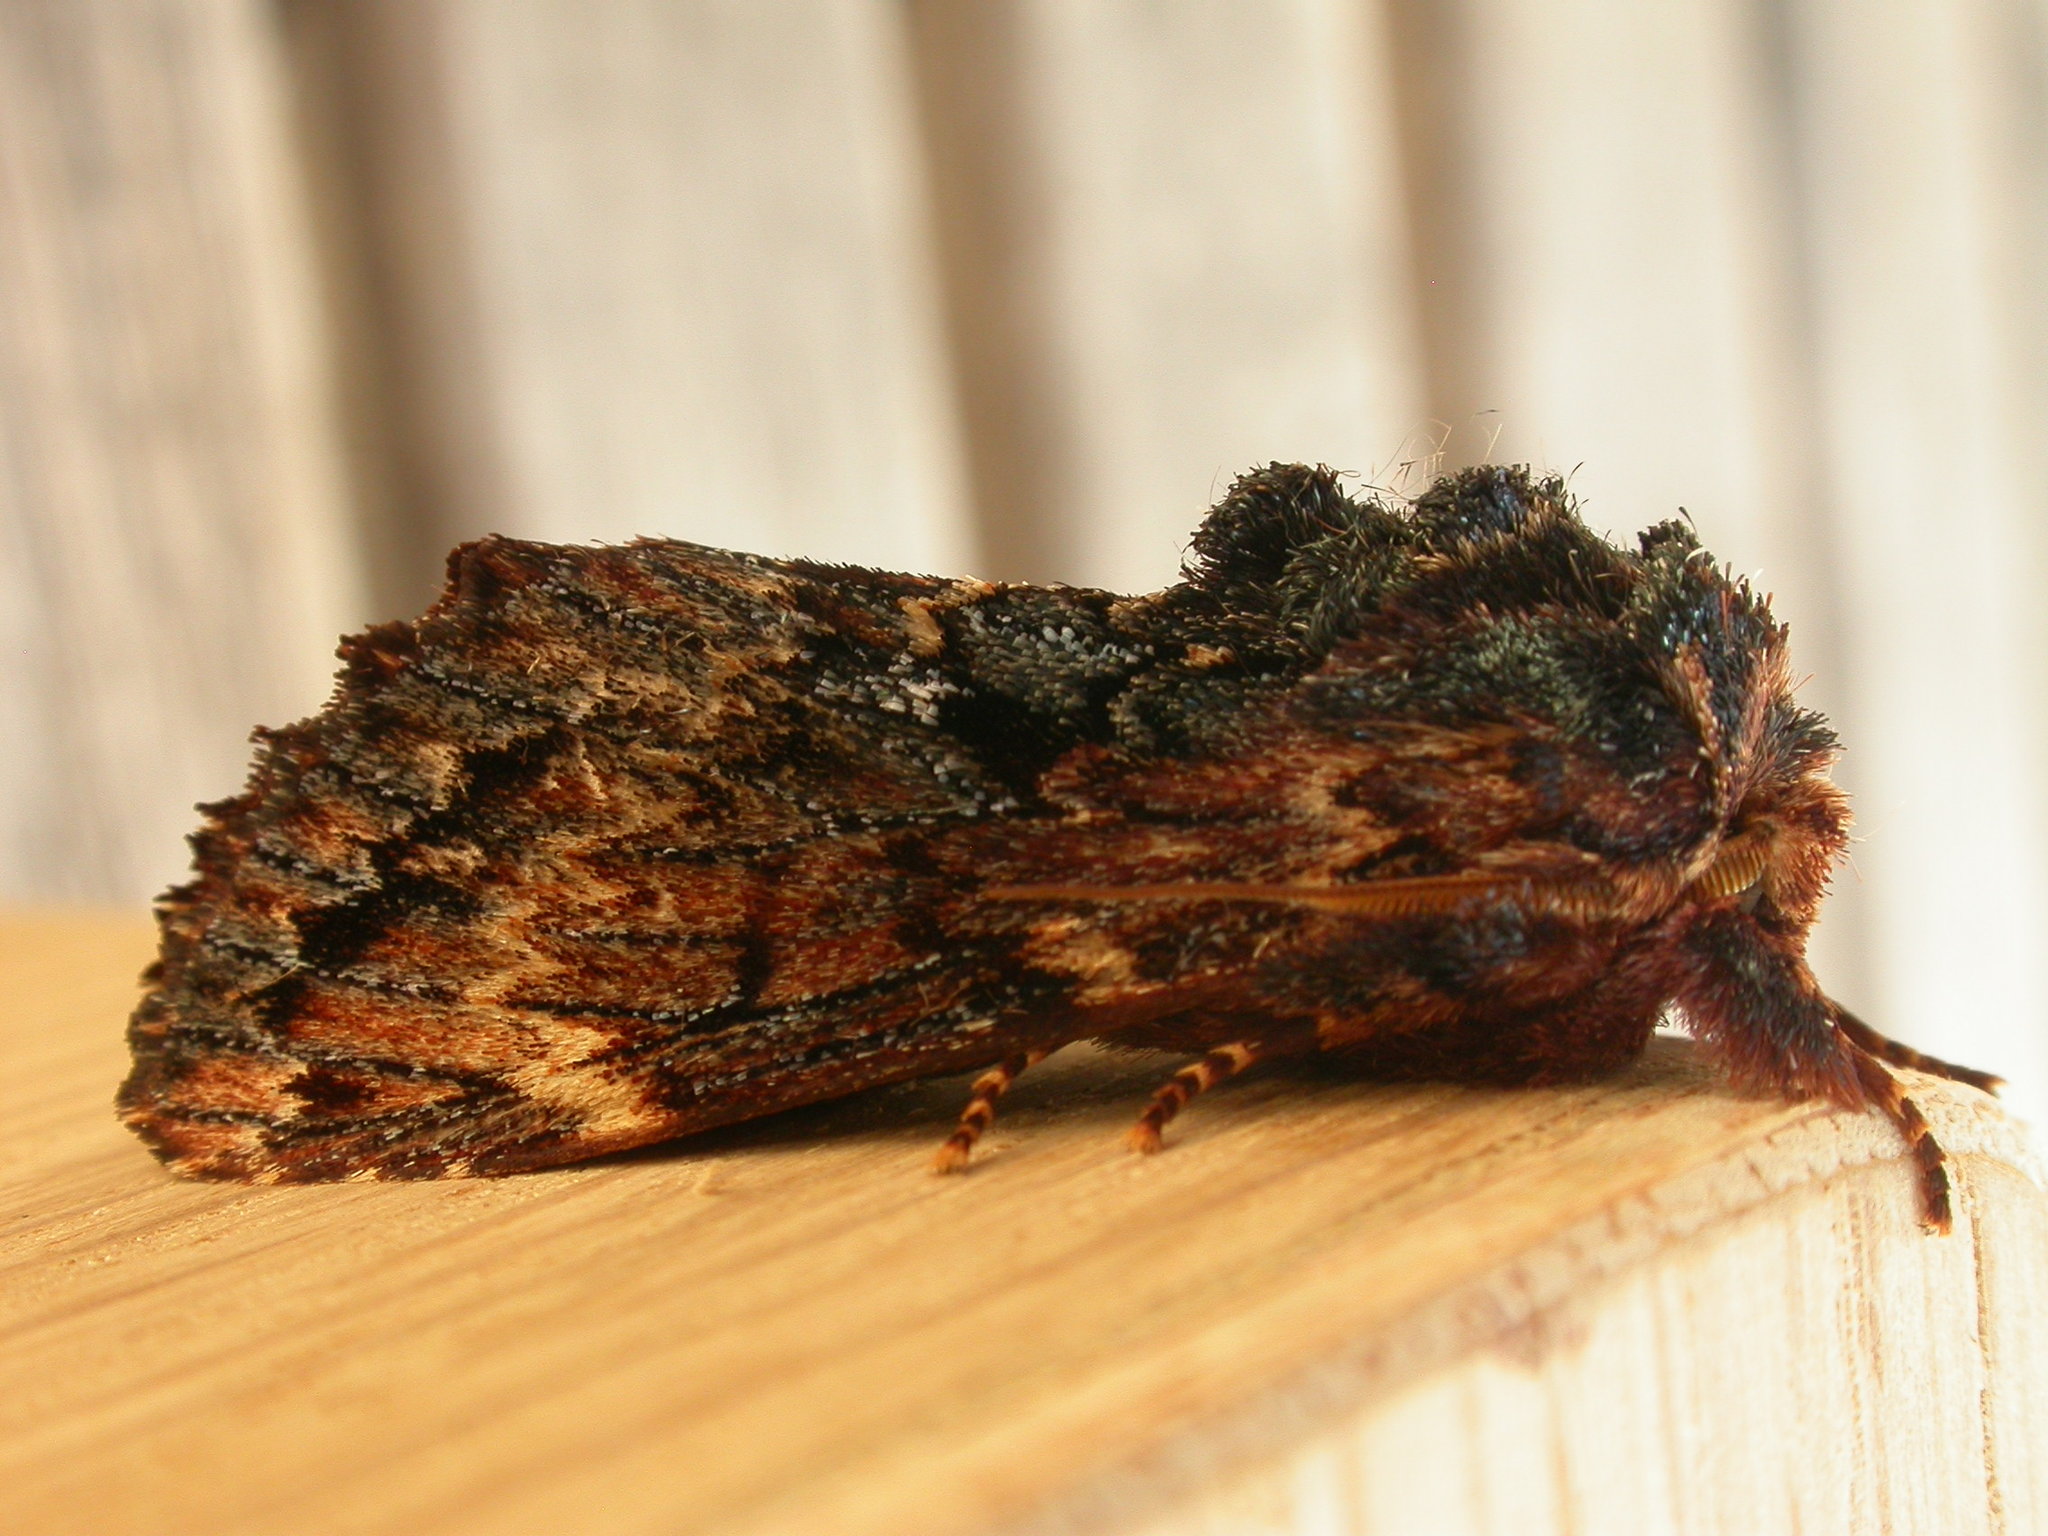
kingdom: Animalia
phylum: Arthropoda
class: Insecta
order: Lepidoptera
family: Notodontidae
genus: Sorama
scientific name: Sorama bicolor
